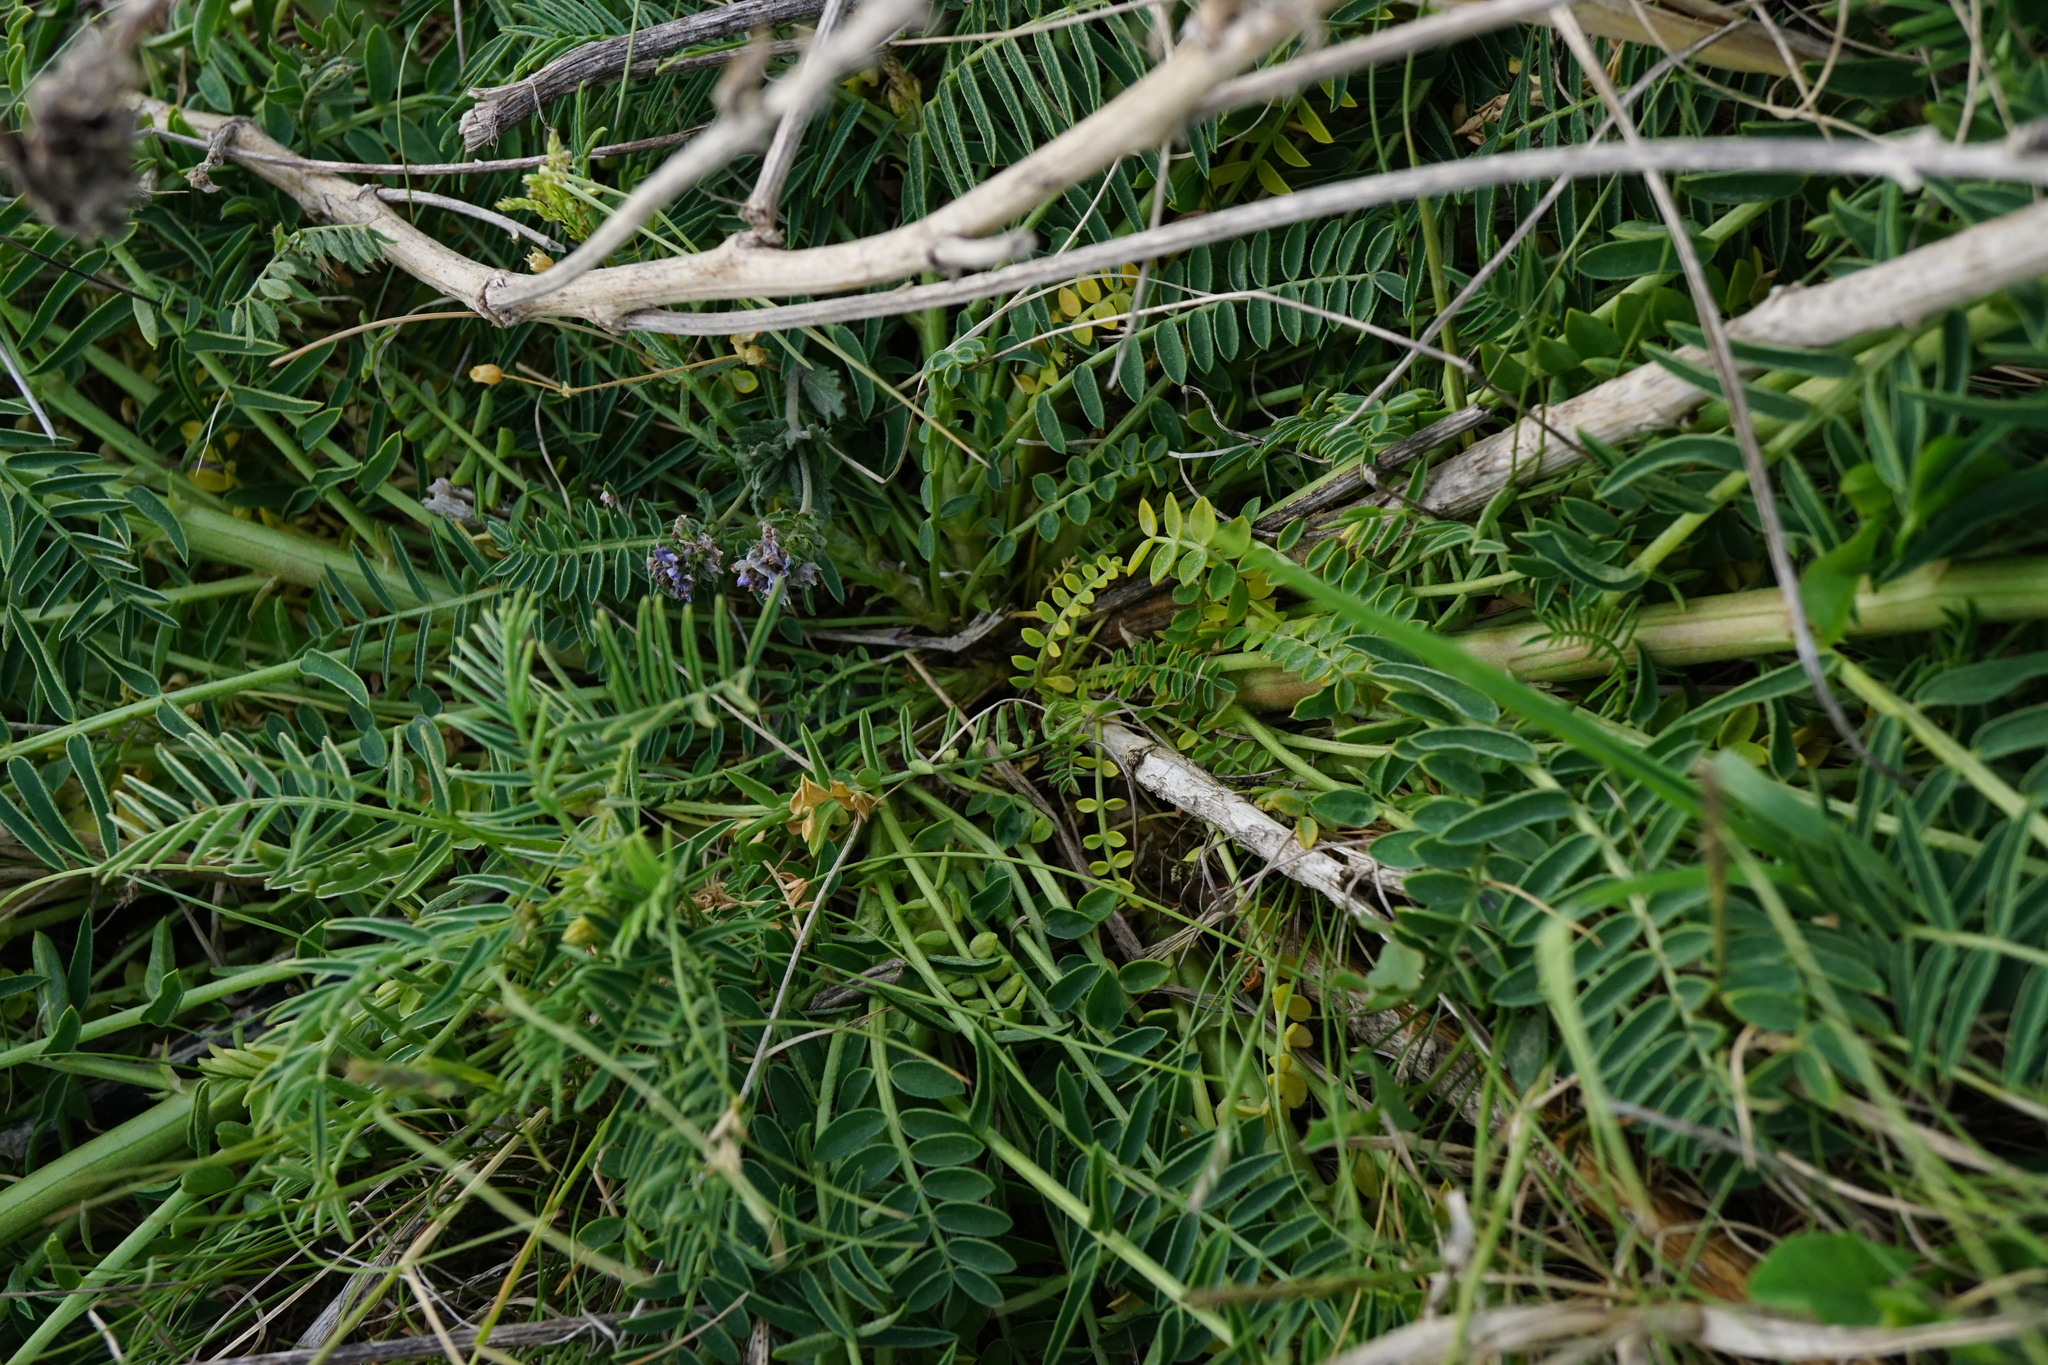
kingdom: Plantae
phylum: Tracheophyta
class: Magnoliopsida
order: Fabales
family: Fabaceae
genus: Astragalus
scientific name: Astragalus asper
